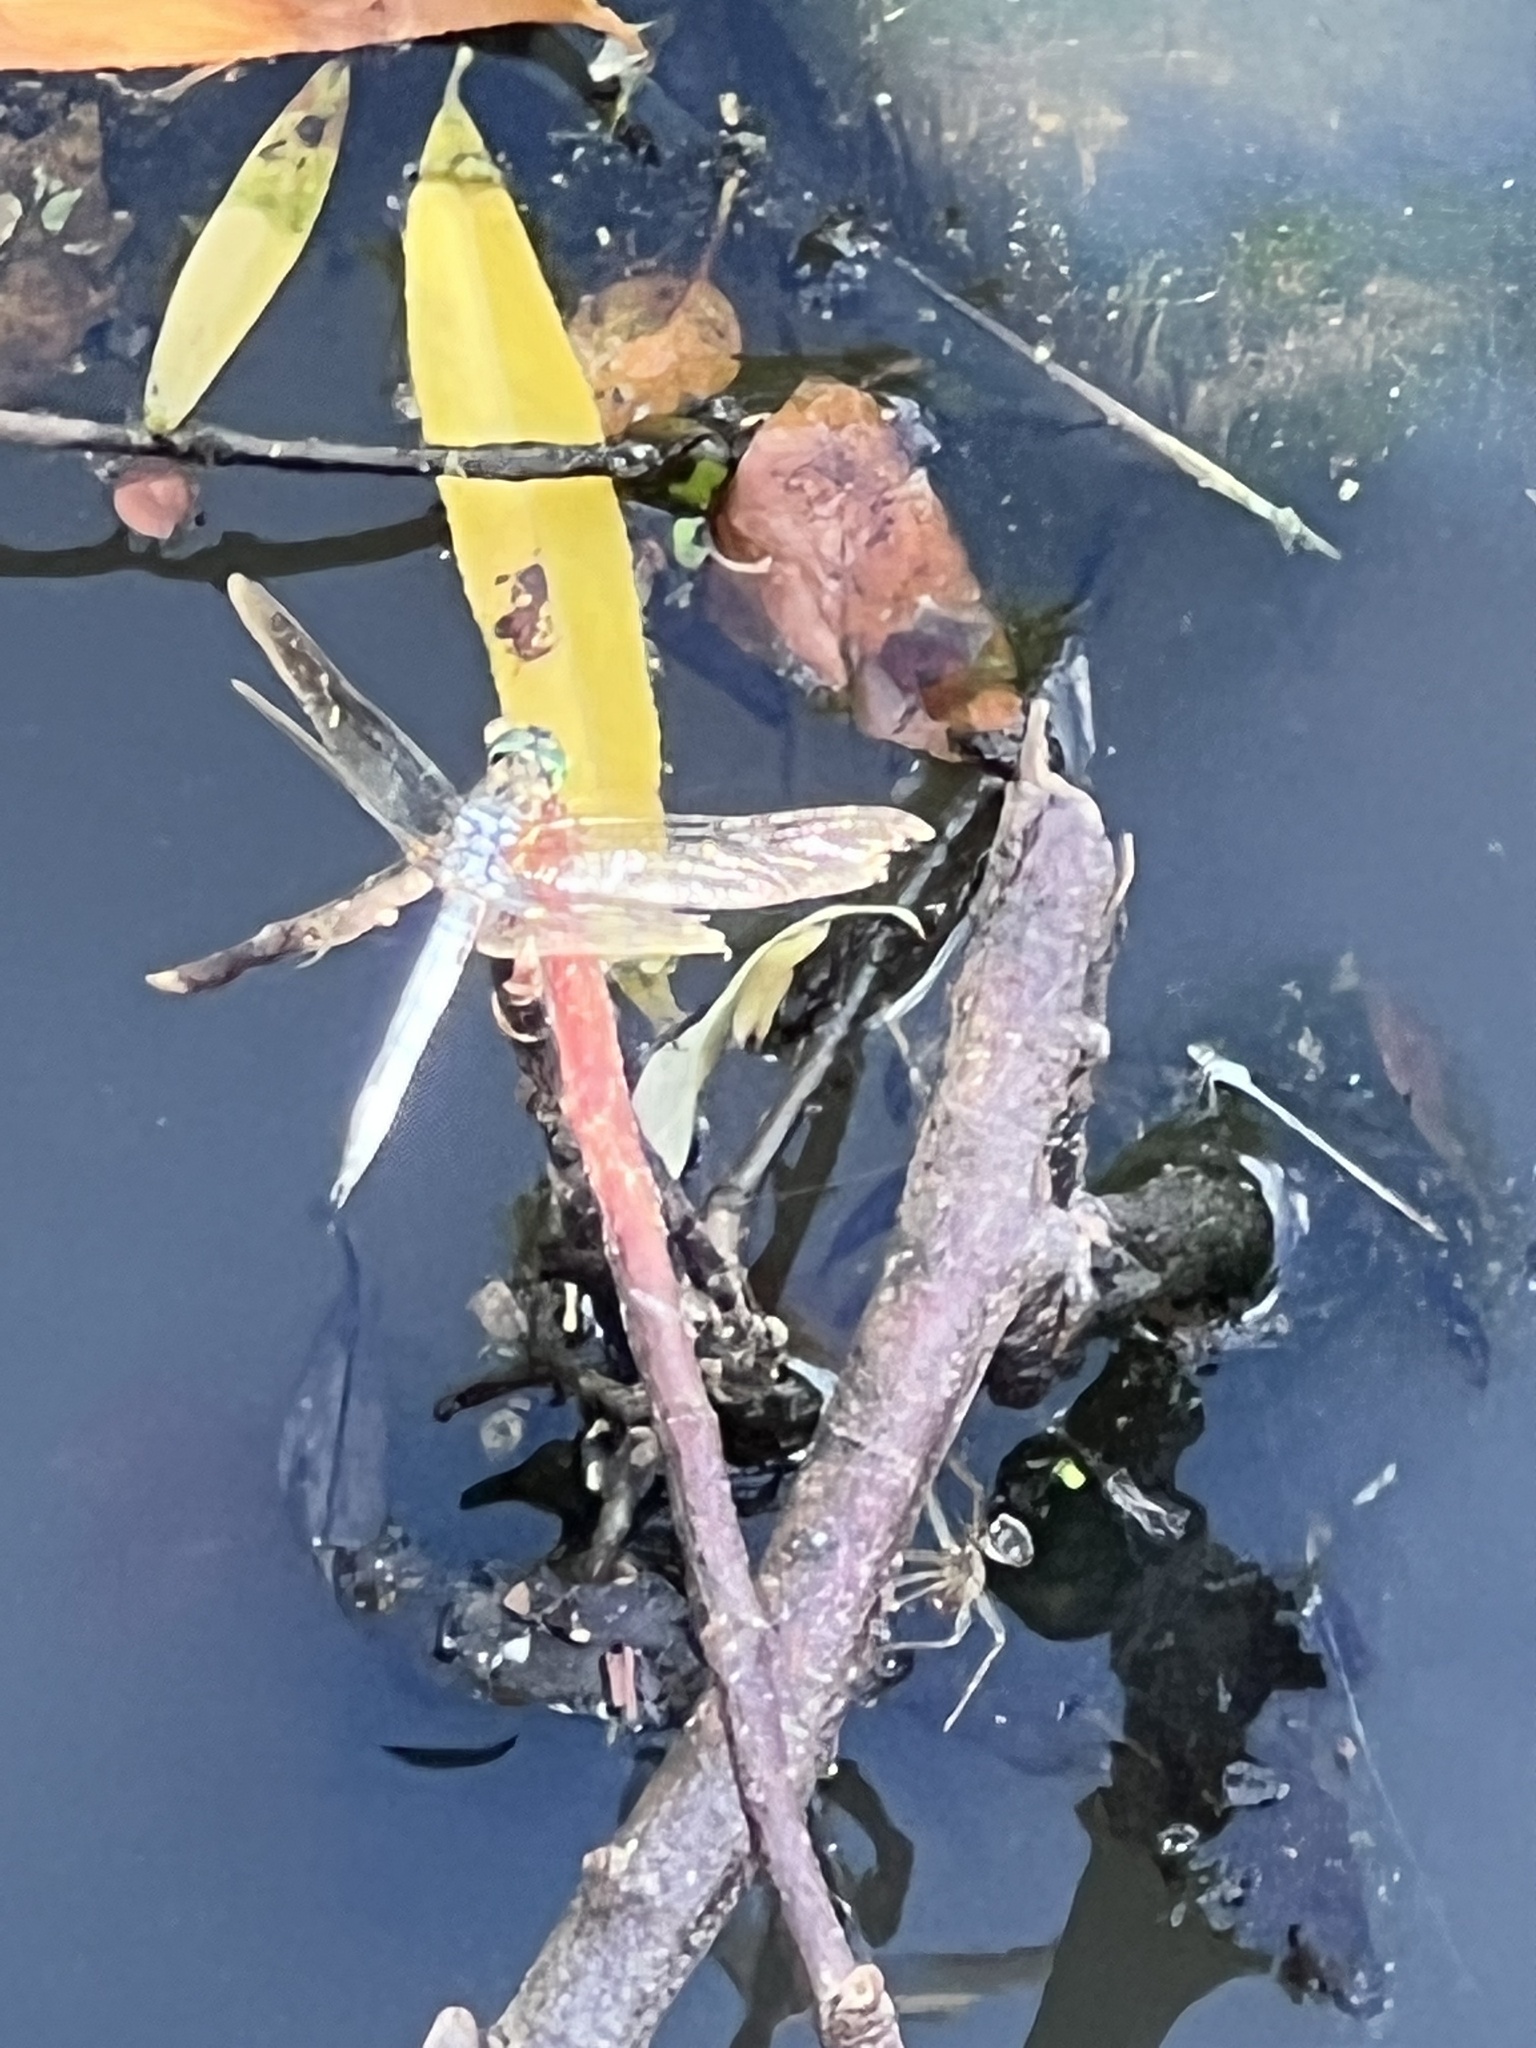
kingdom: Animalia
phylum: Arthropoda
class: Insecta
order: Odonata
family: Libellulidae
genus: Pachydiplax
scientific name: Pachydiplax longipennis
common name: Blue dasher
